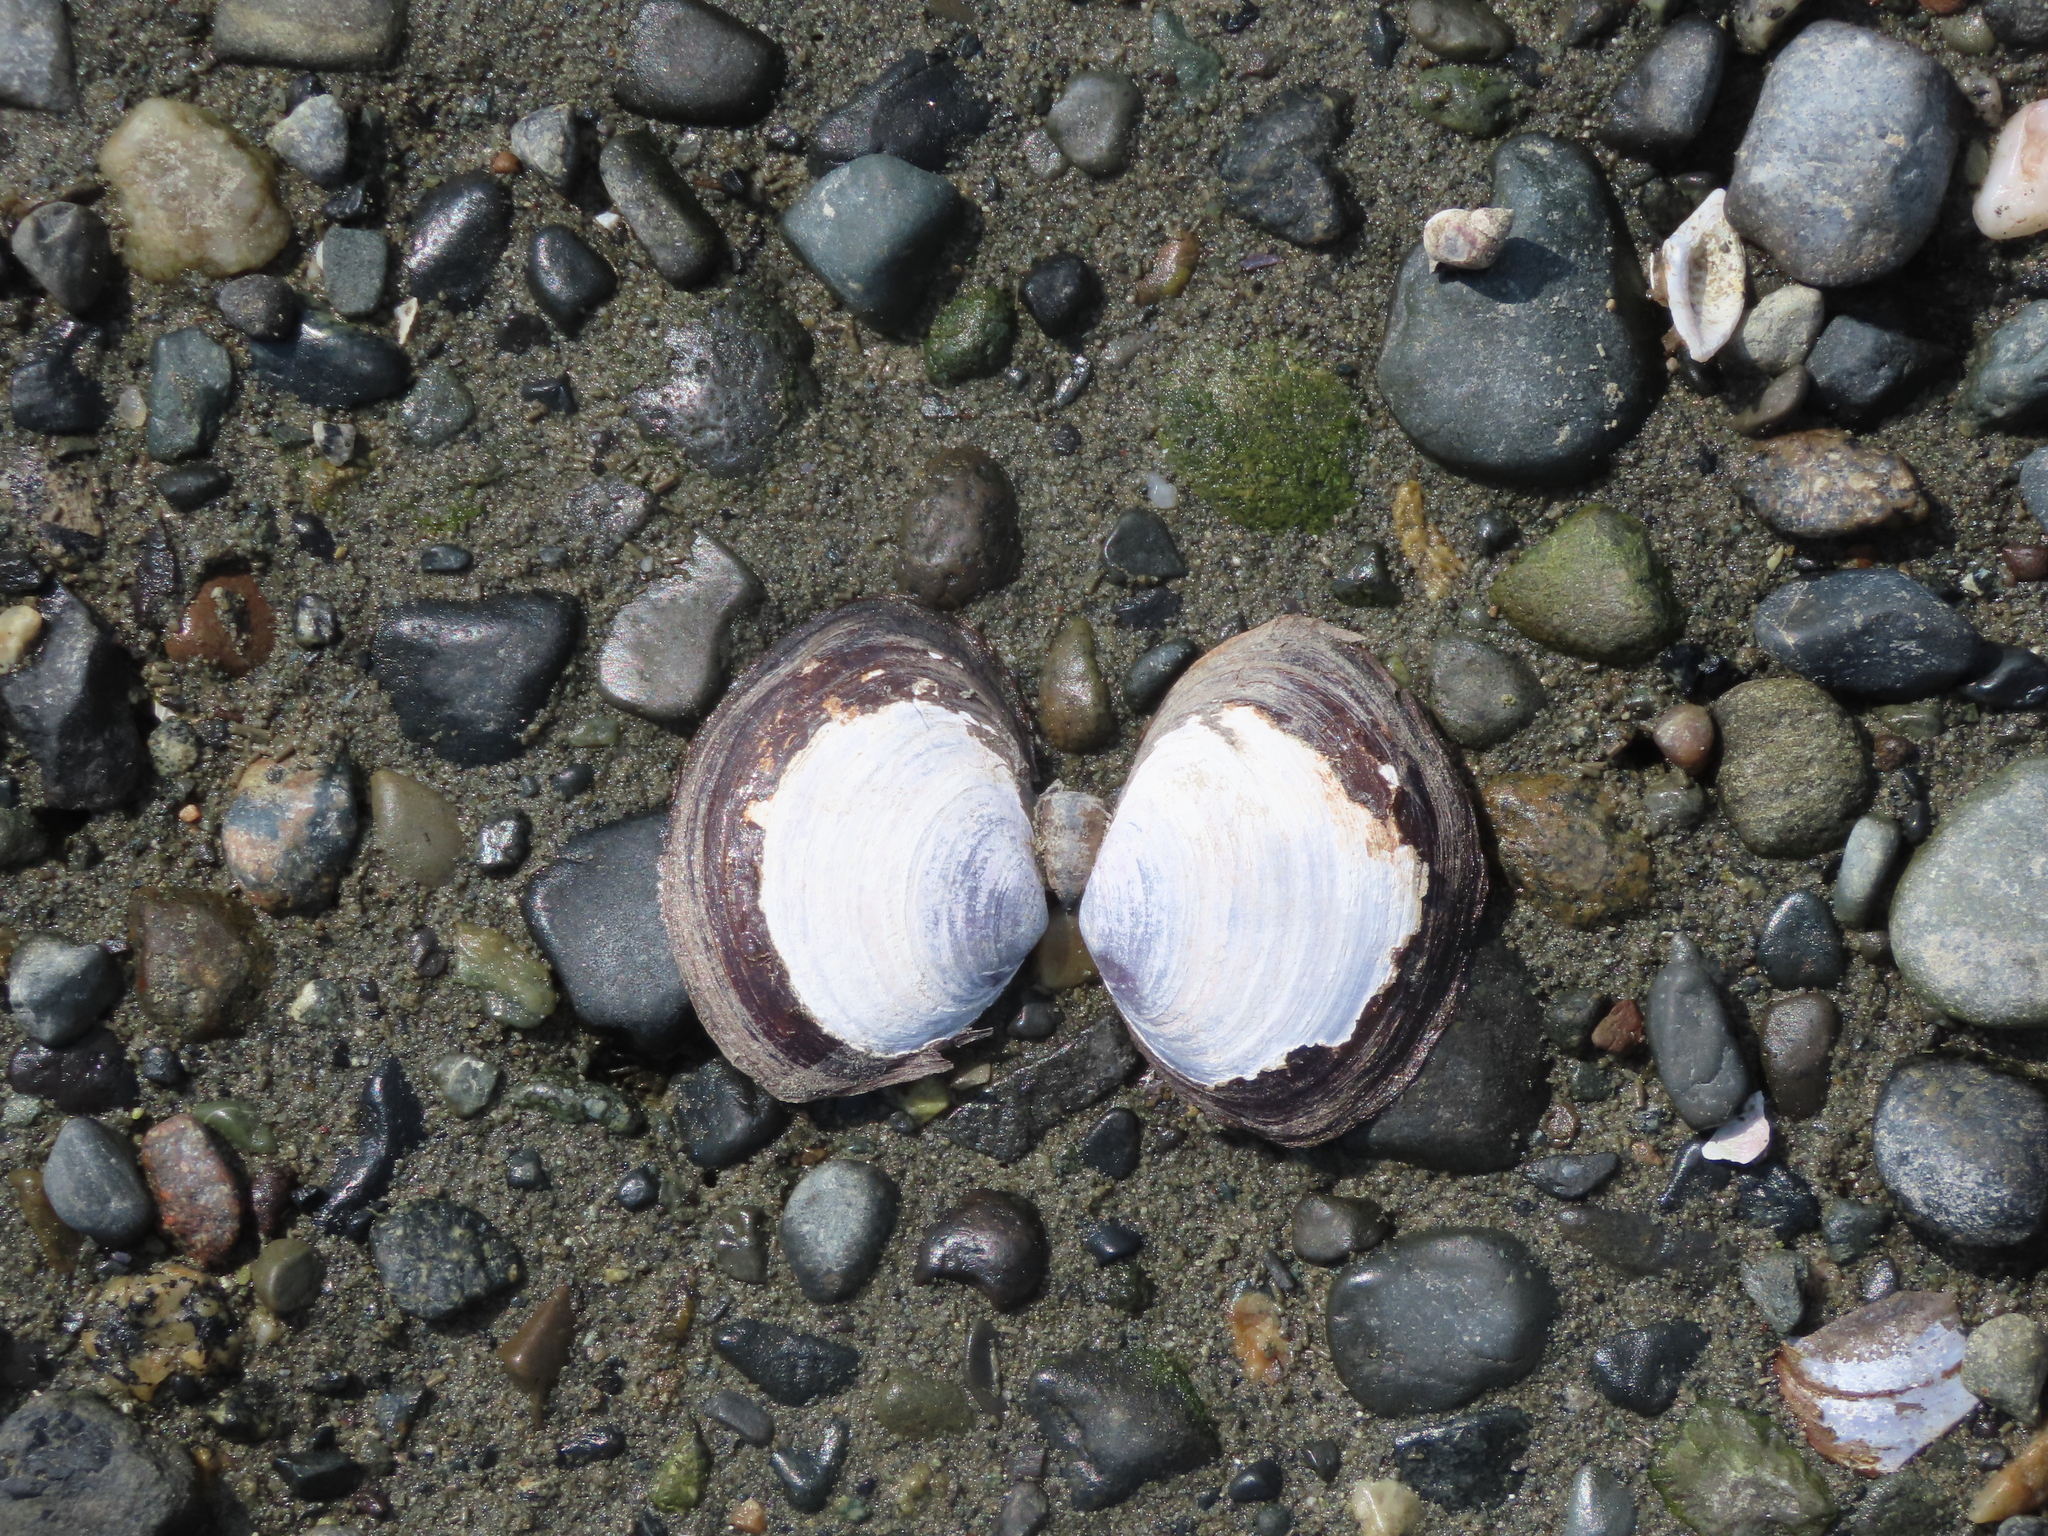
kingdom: Animalia
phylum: Mollusca
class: Bivalvia
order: Cardiida
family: Psammobiidae
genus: Nuttallia
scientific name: Nuttallia obscurata
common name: Purple mahogany-clam
